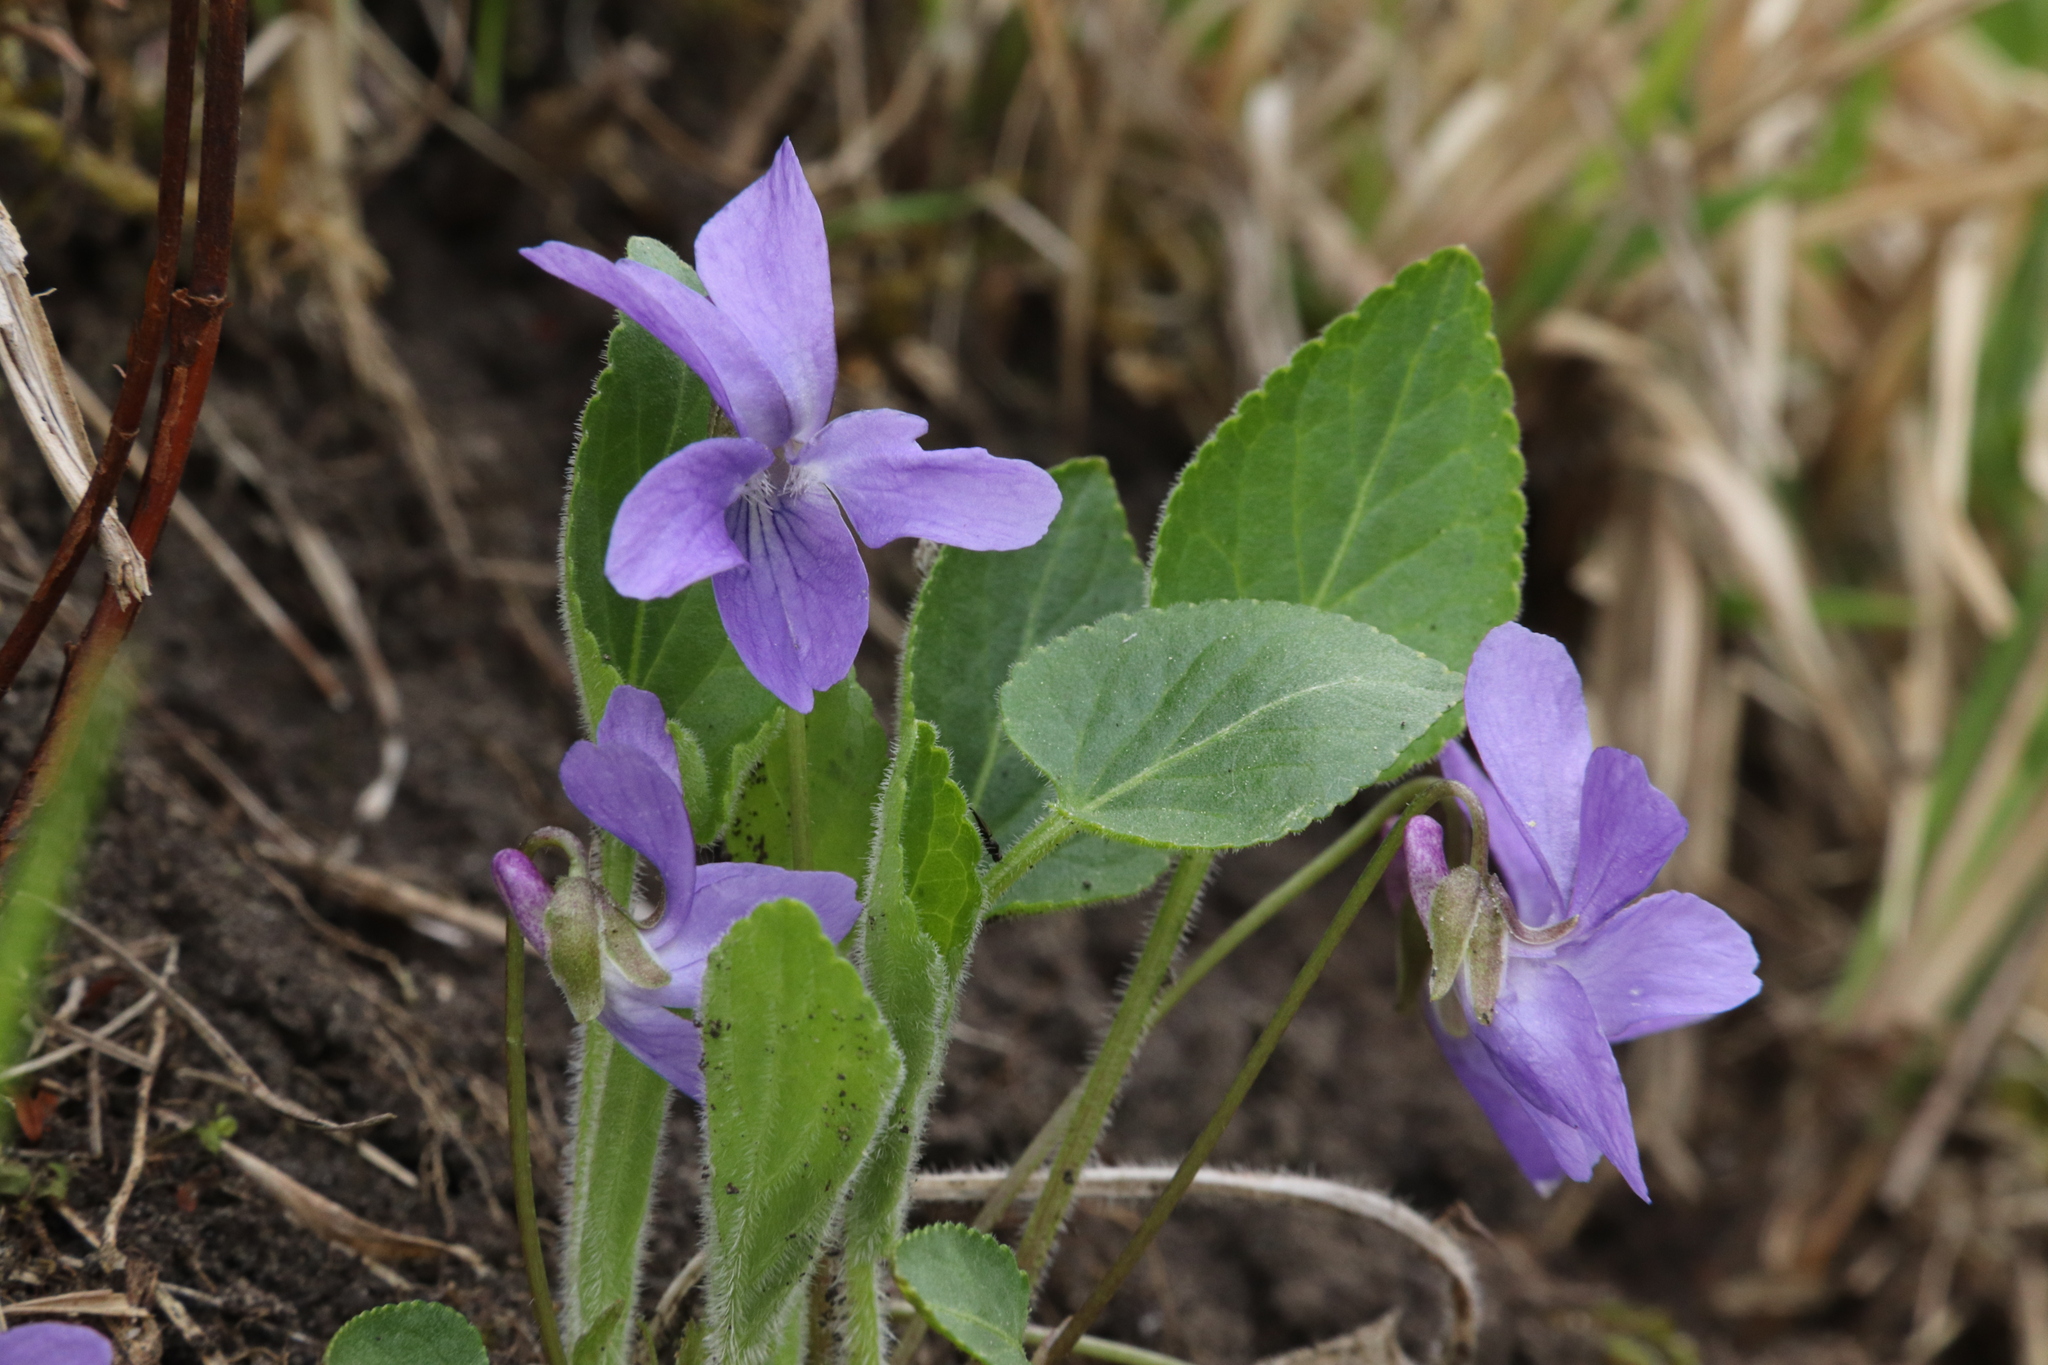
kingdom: Plantae
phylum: Tracheophyta
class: Magnoliopsida
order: Malpighiales
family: Violaceae
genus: Viola
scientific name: Viola hirta
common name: Hairy violet
